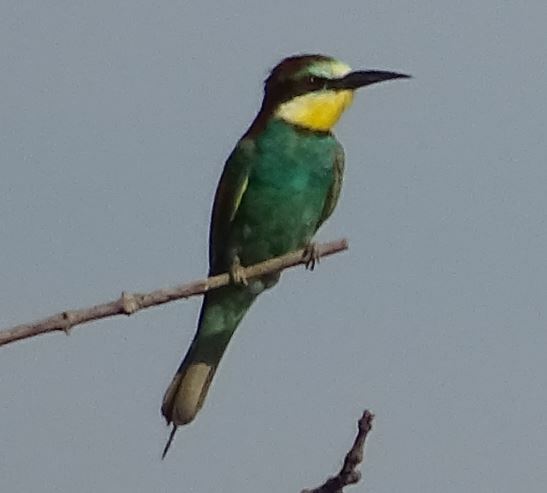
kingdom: Animalia
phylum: Chordata
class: Aves
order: Coraciiformes
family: Meropidae
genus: Merops
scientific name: Merops apiaster
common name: European bee-eater
